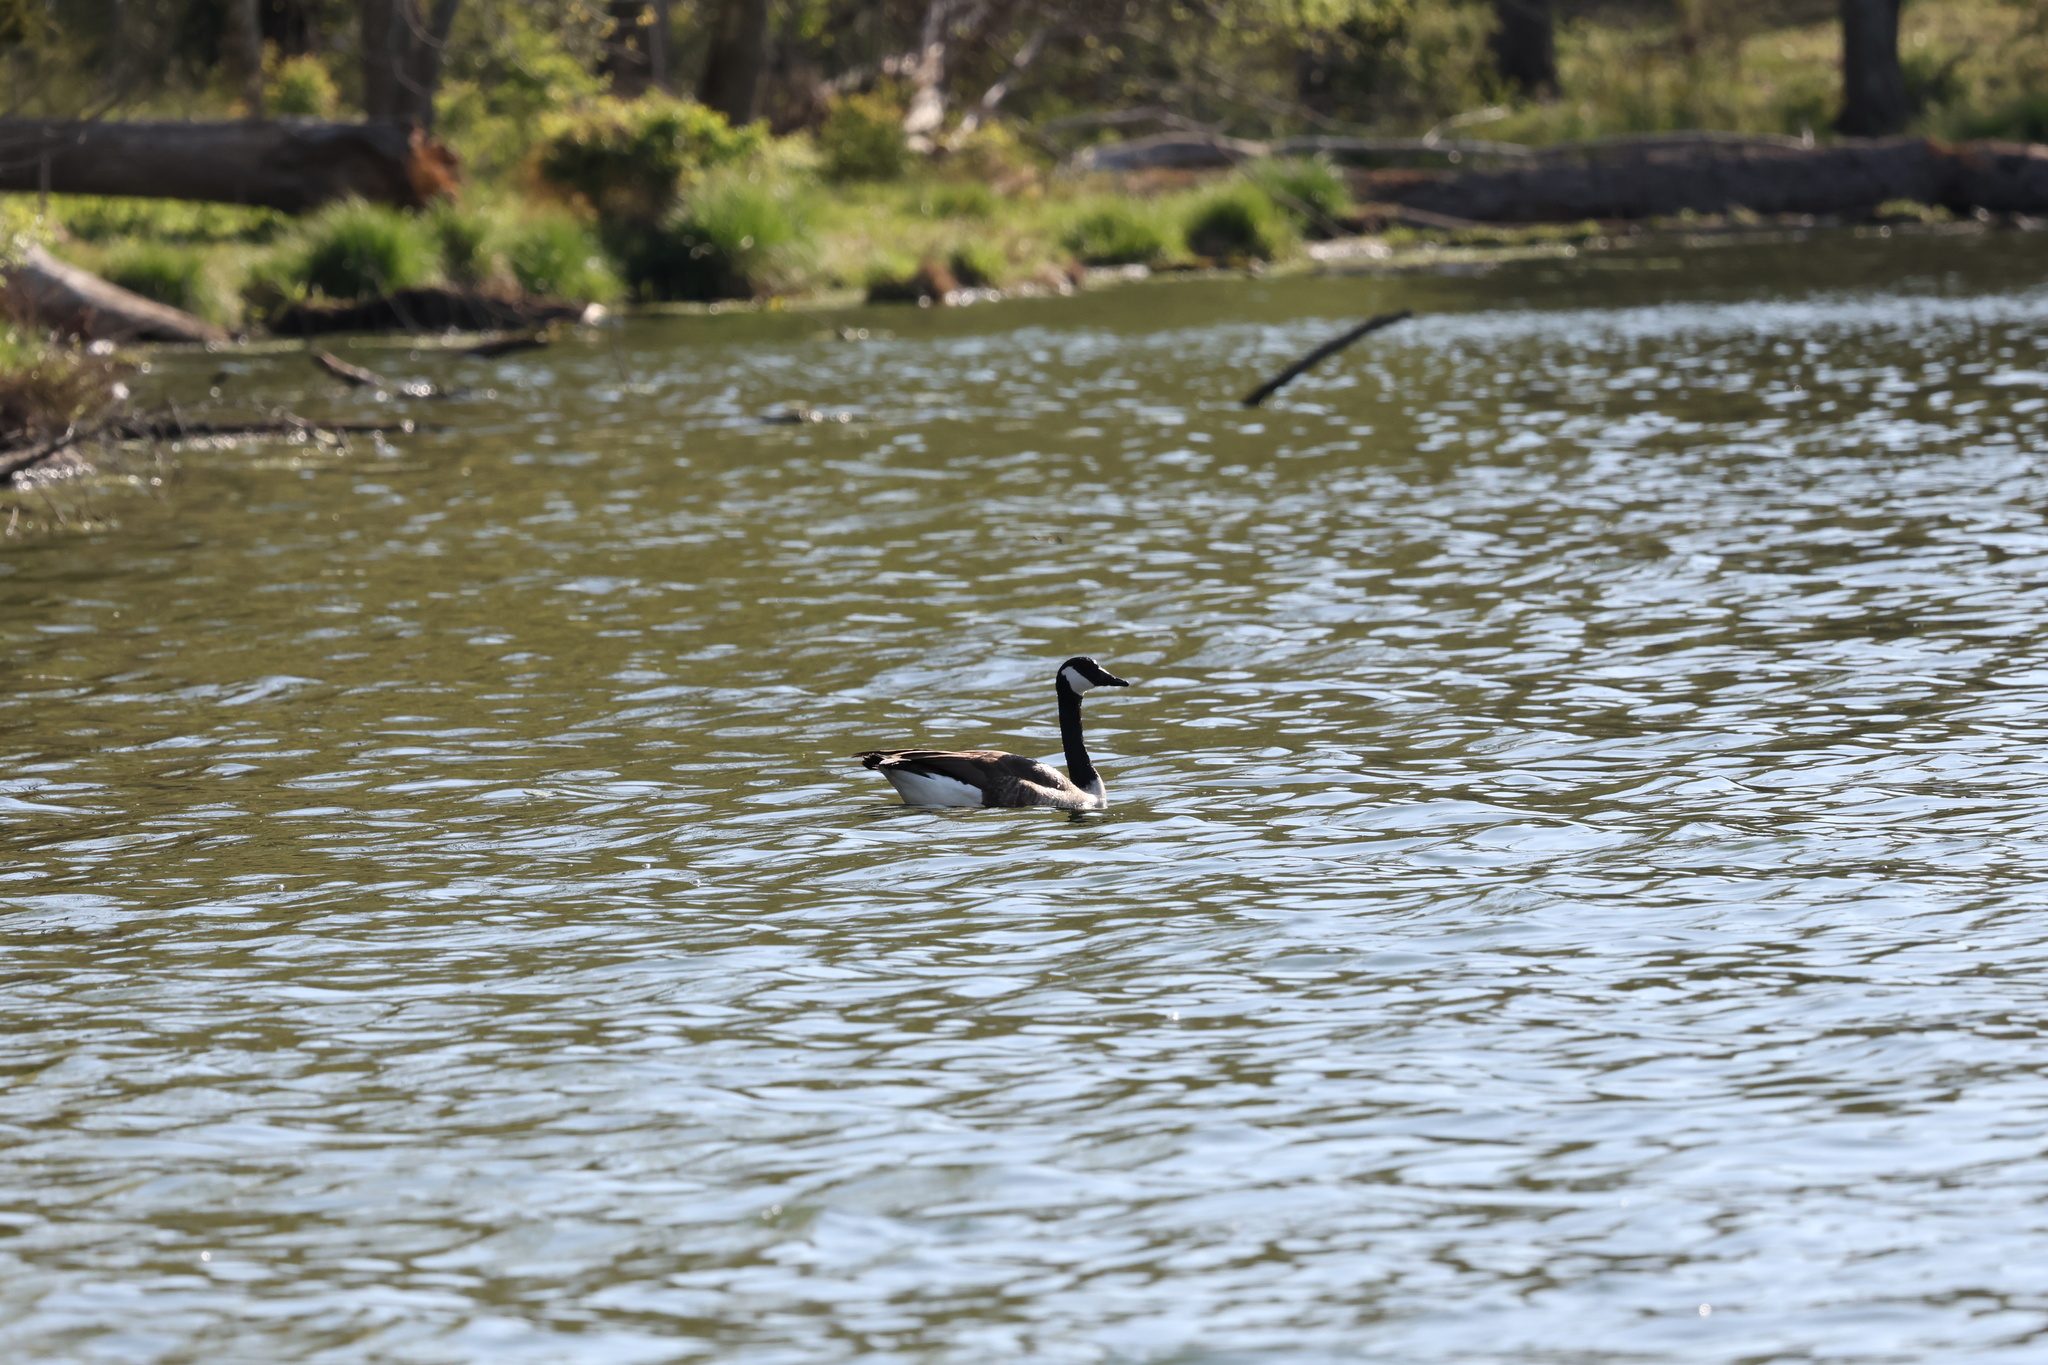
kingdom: Animalia
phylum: Chordata
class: Aves
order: Anseriformes
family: Anatidae
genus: Branta
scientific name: Branta canadensis
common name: Canada goose
